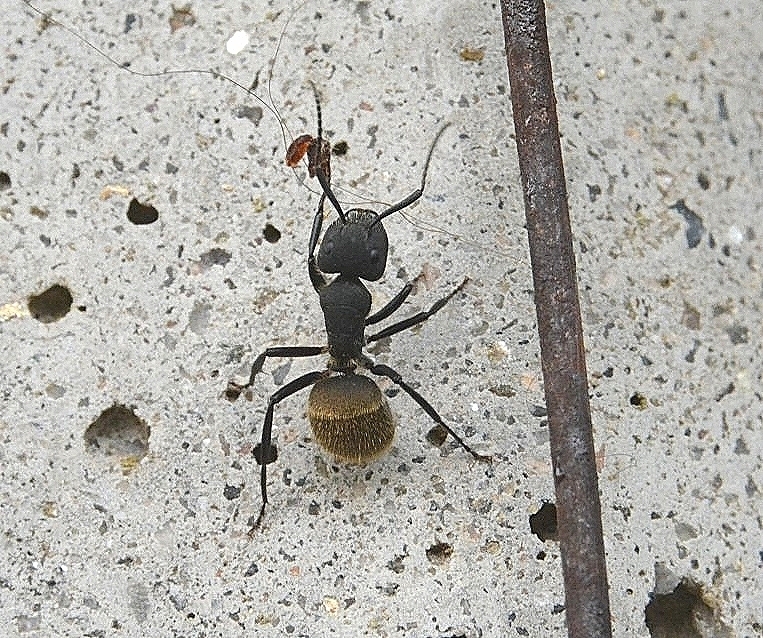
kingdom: Animalia
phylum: Arthropoda
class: Insecta
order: Hymenoptera
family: Formicidae
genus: Camponotus
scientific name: Camponotus mus
